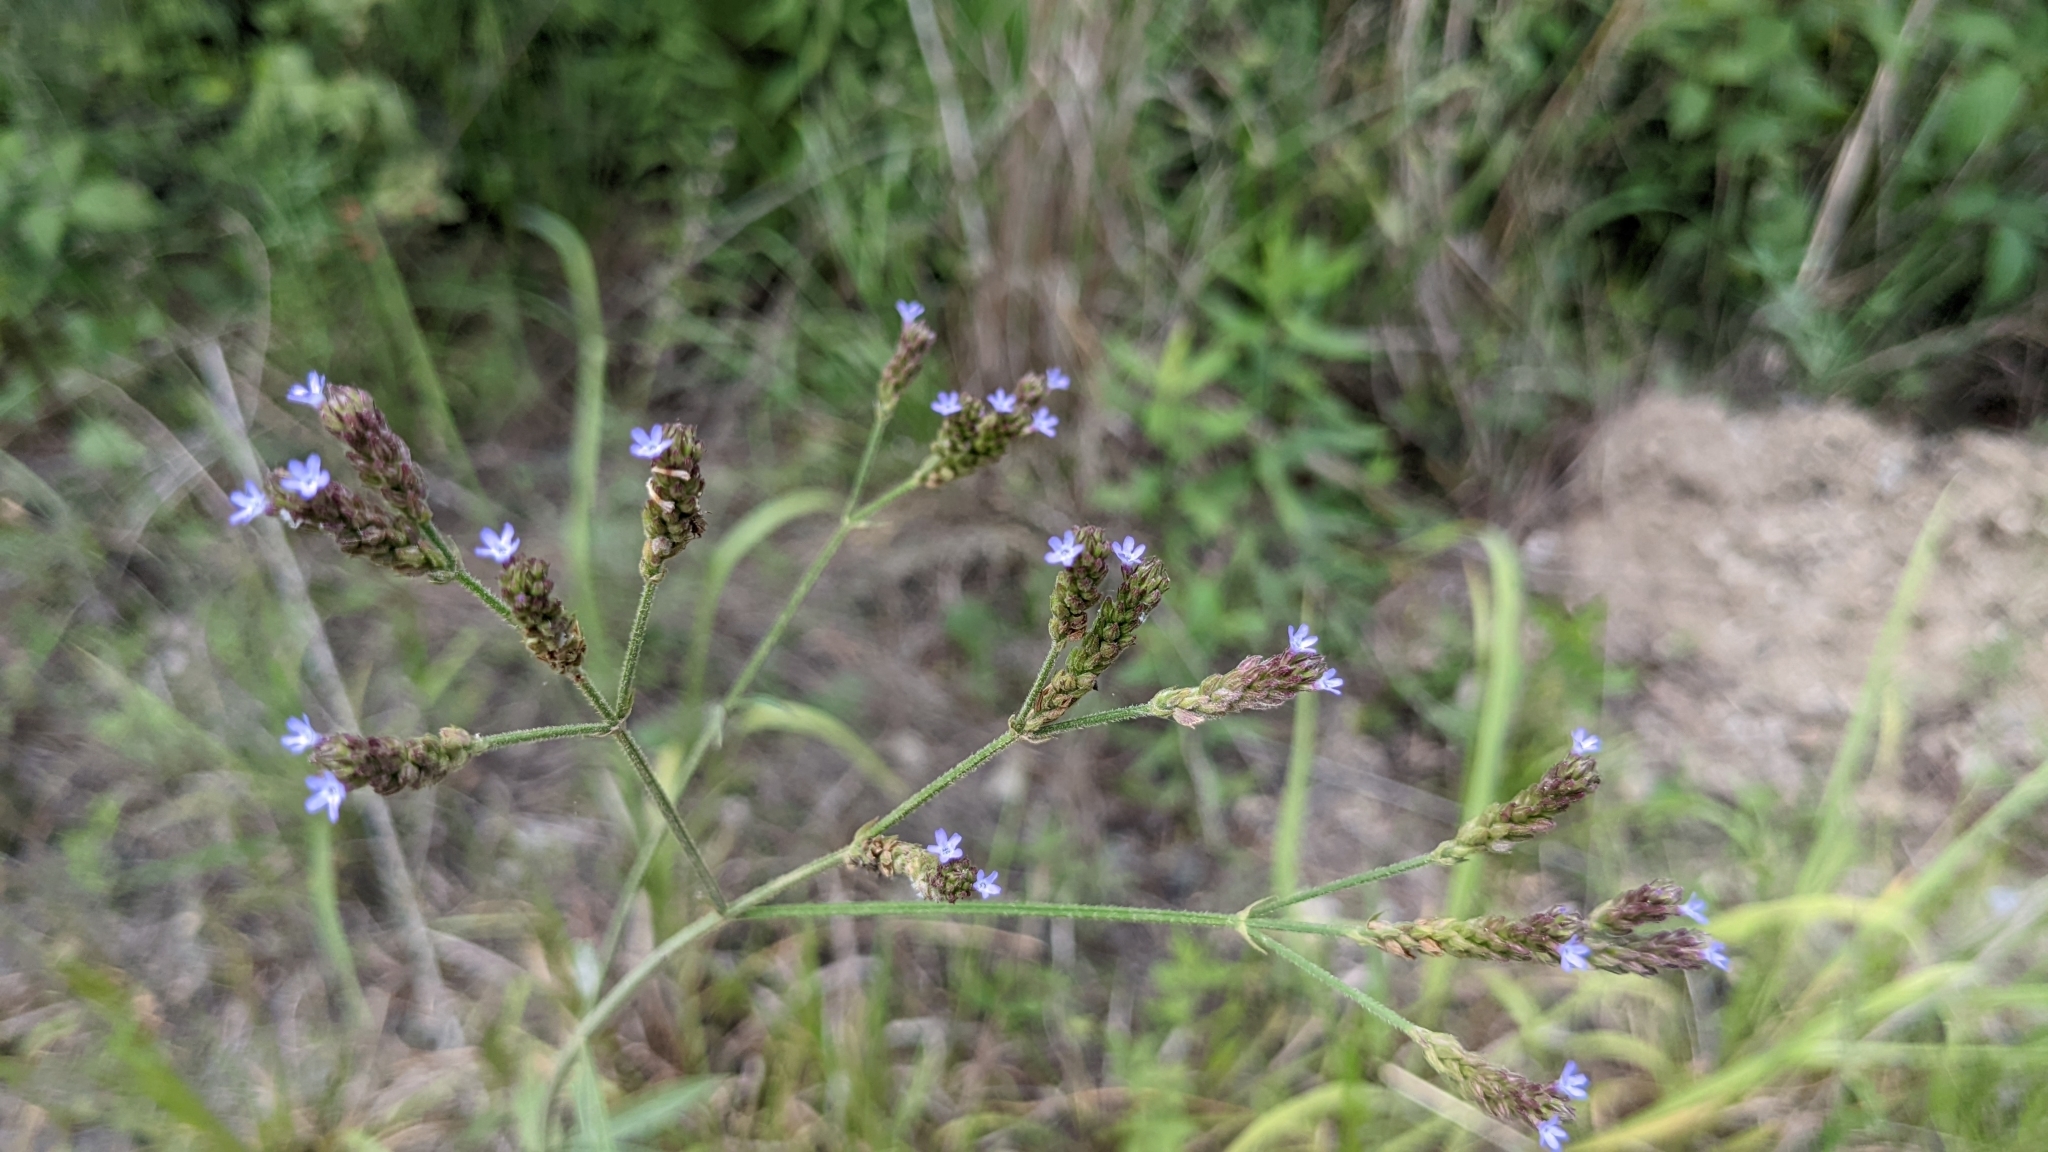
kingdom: Plantae
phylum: Tracheophyta
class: Magnoliopsida
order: Lamiales
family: Verbenaceae
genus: Verbena
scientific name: Verbena brasiliensis
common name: Brazilian vervain
